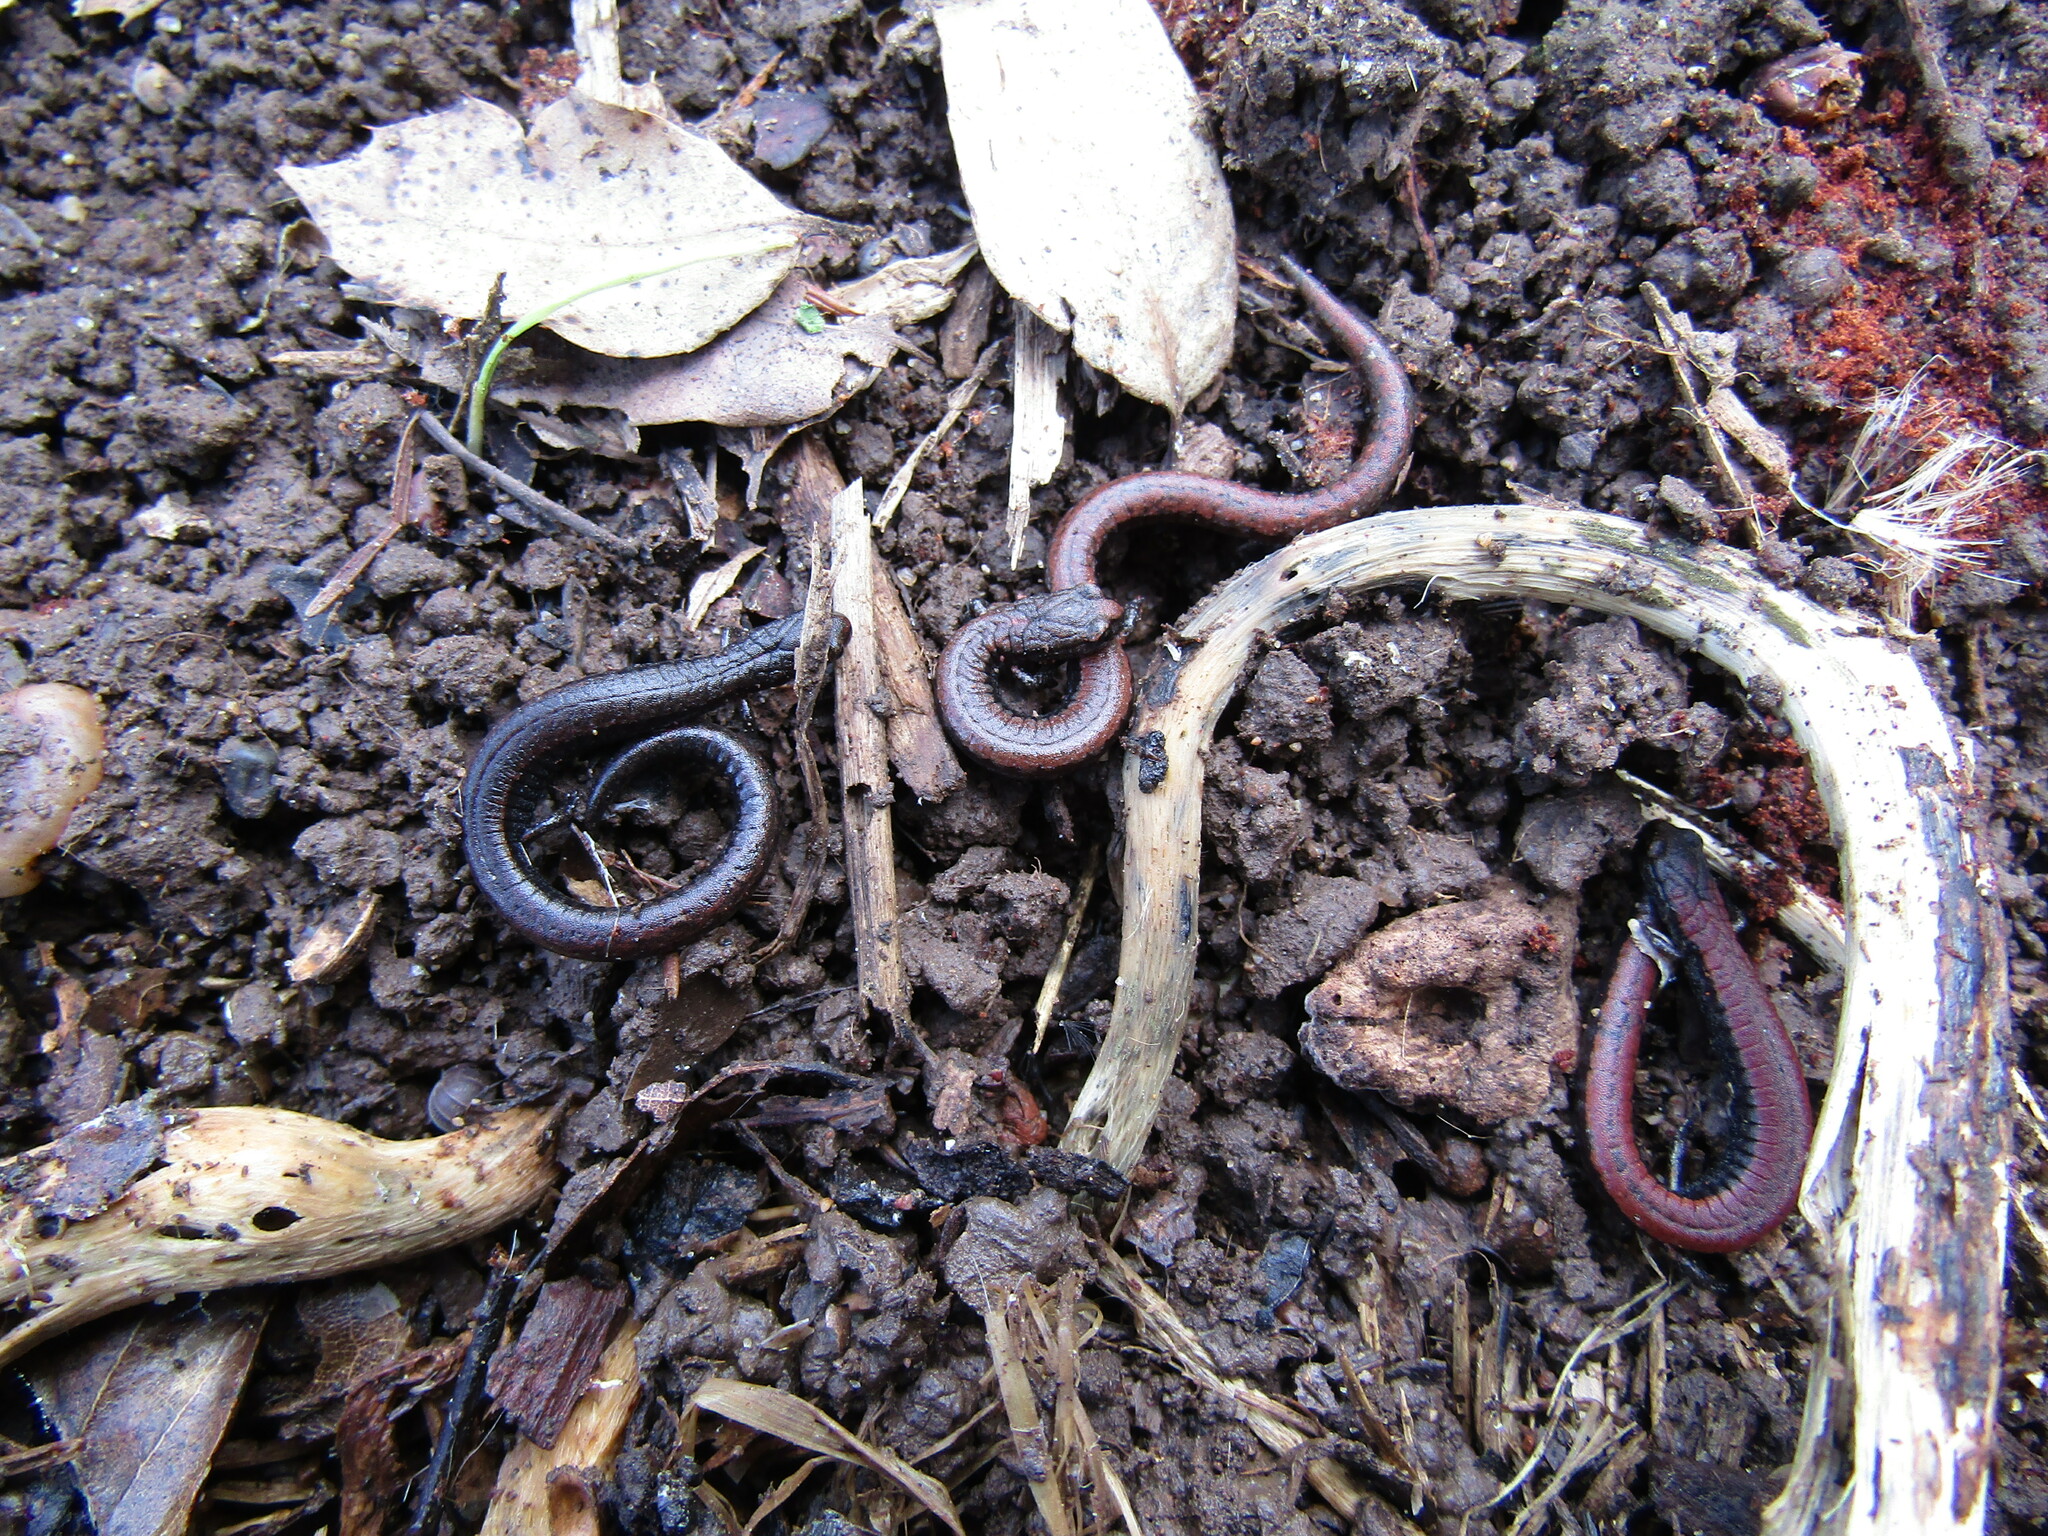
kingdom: Animalia
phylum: Chordata
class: Amphibia
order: Caudata
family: Plethodontidae
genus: Batrachoseps
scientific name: Batrachoseps attenuatus
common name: California slender salamander
